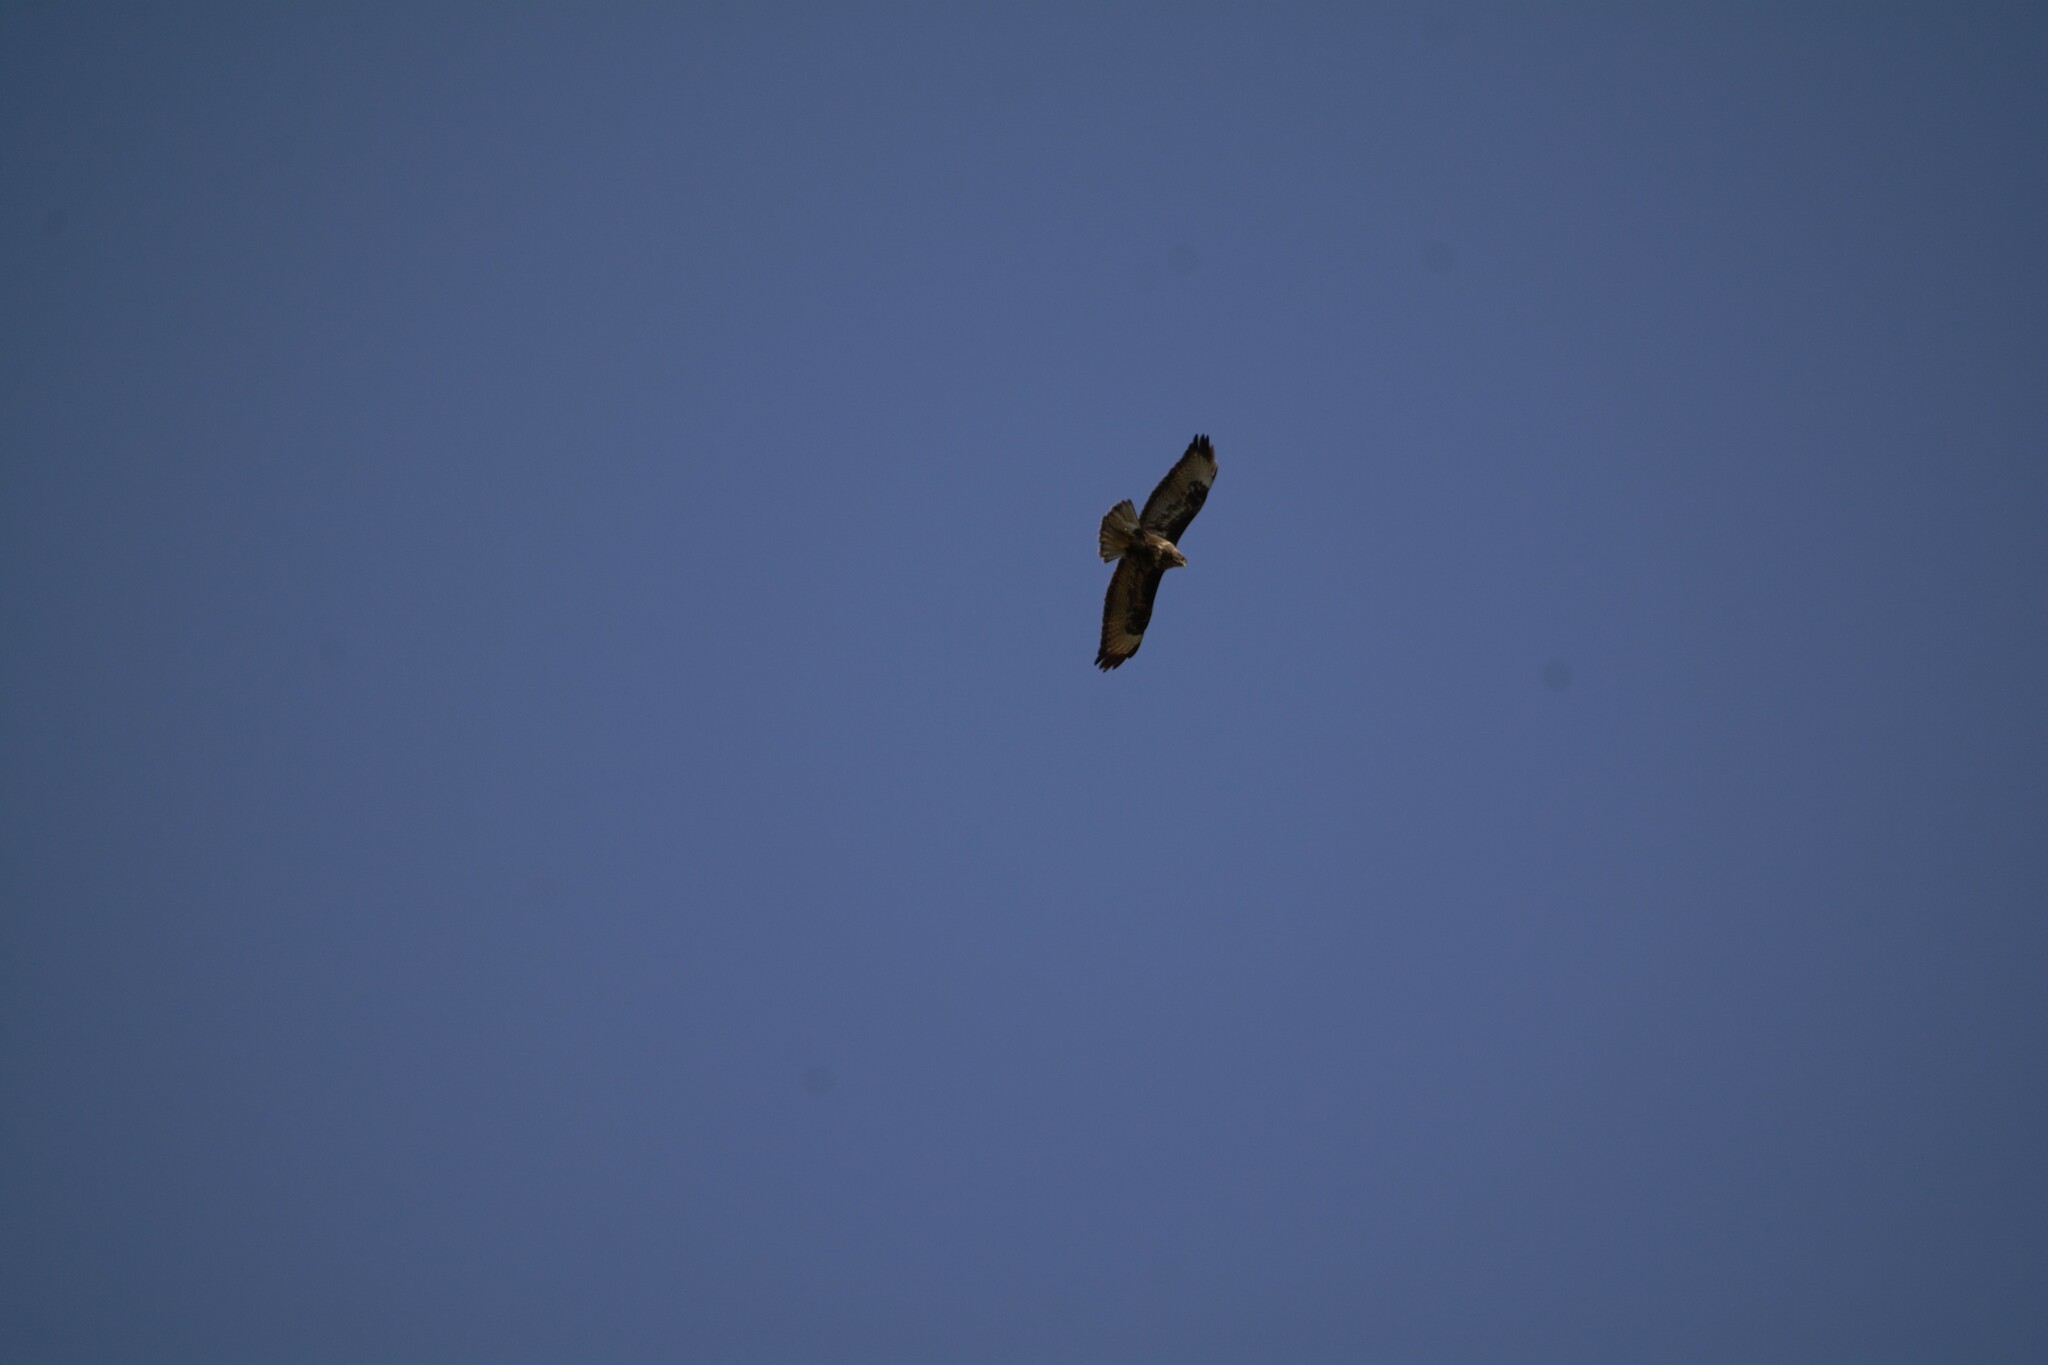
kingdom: Animalia
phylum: Chordata
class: Aves
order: Accipitriformes
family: Accipitridae
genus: Buteo
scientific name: Buteo buteo
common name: Common buzzard
